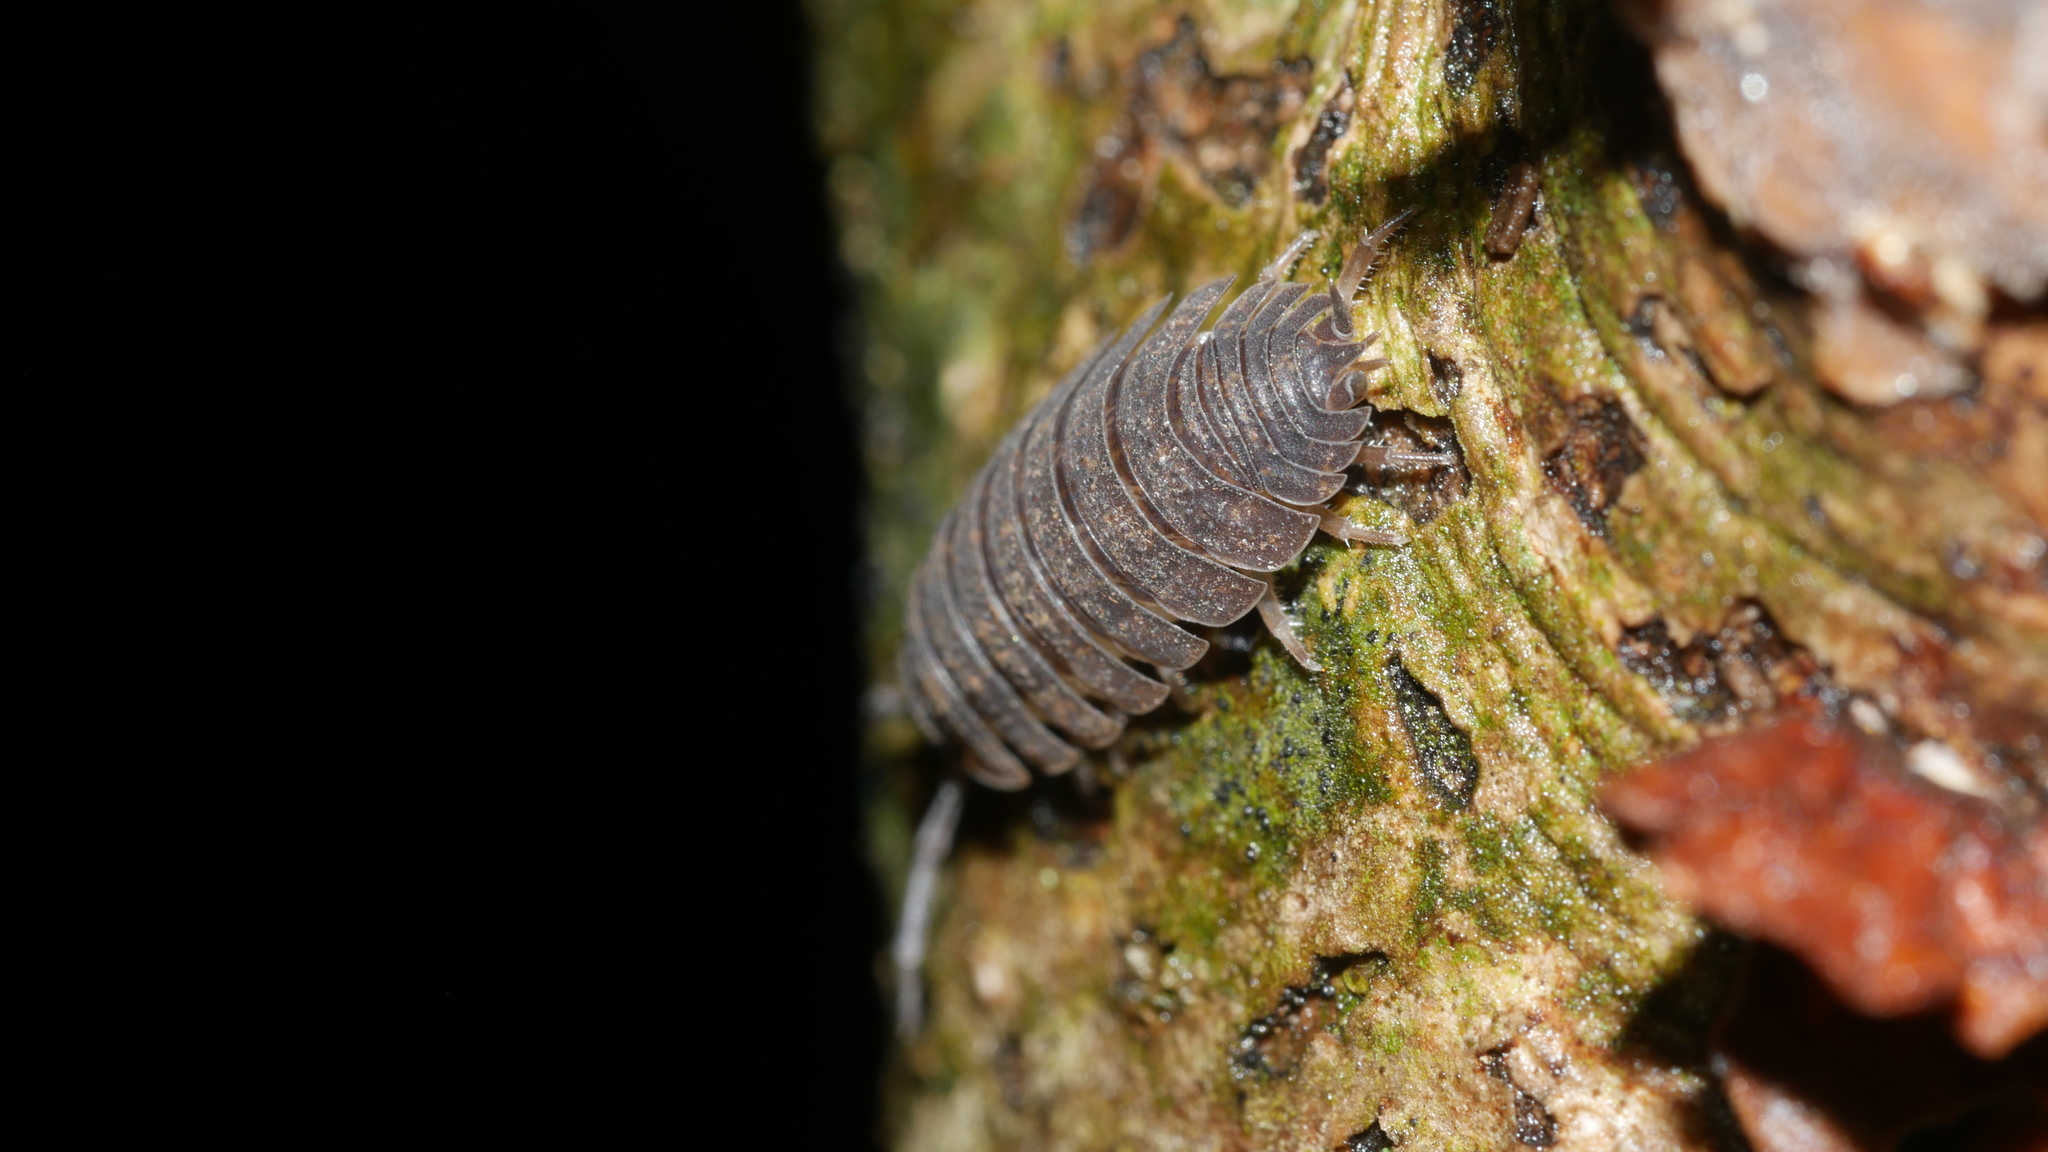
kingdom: Animalia
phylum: Arthropoda
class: Malacostraca
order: Isopoda
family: Porcellionidae
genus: Porcellio
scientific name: Porcellio scaber
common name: Common rough woodlouse
